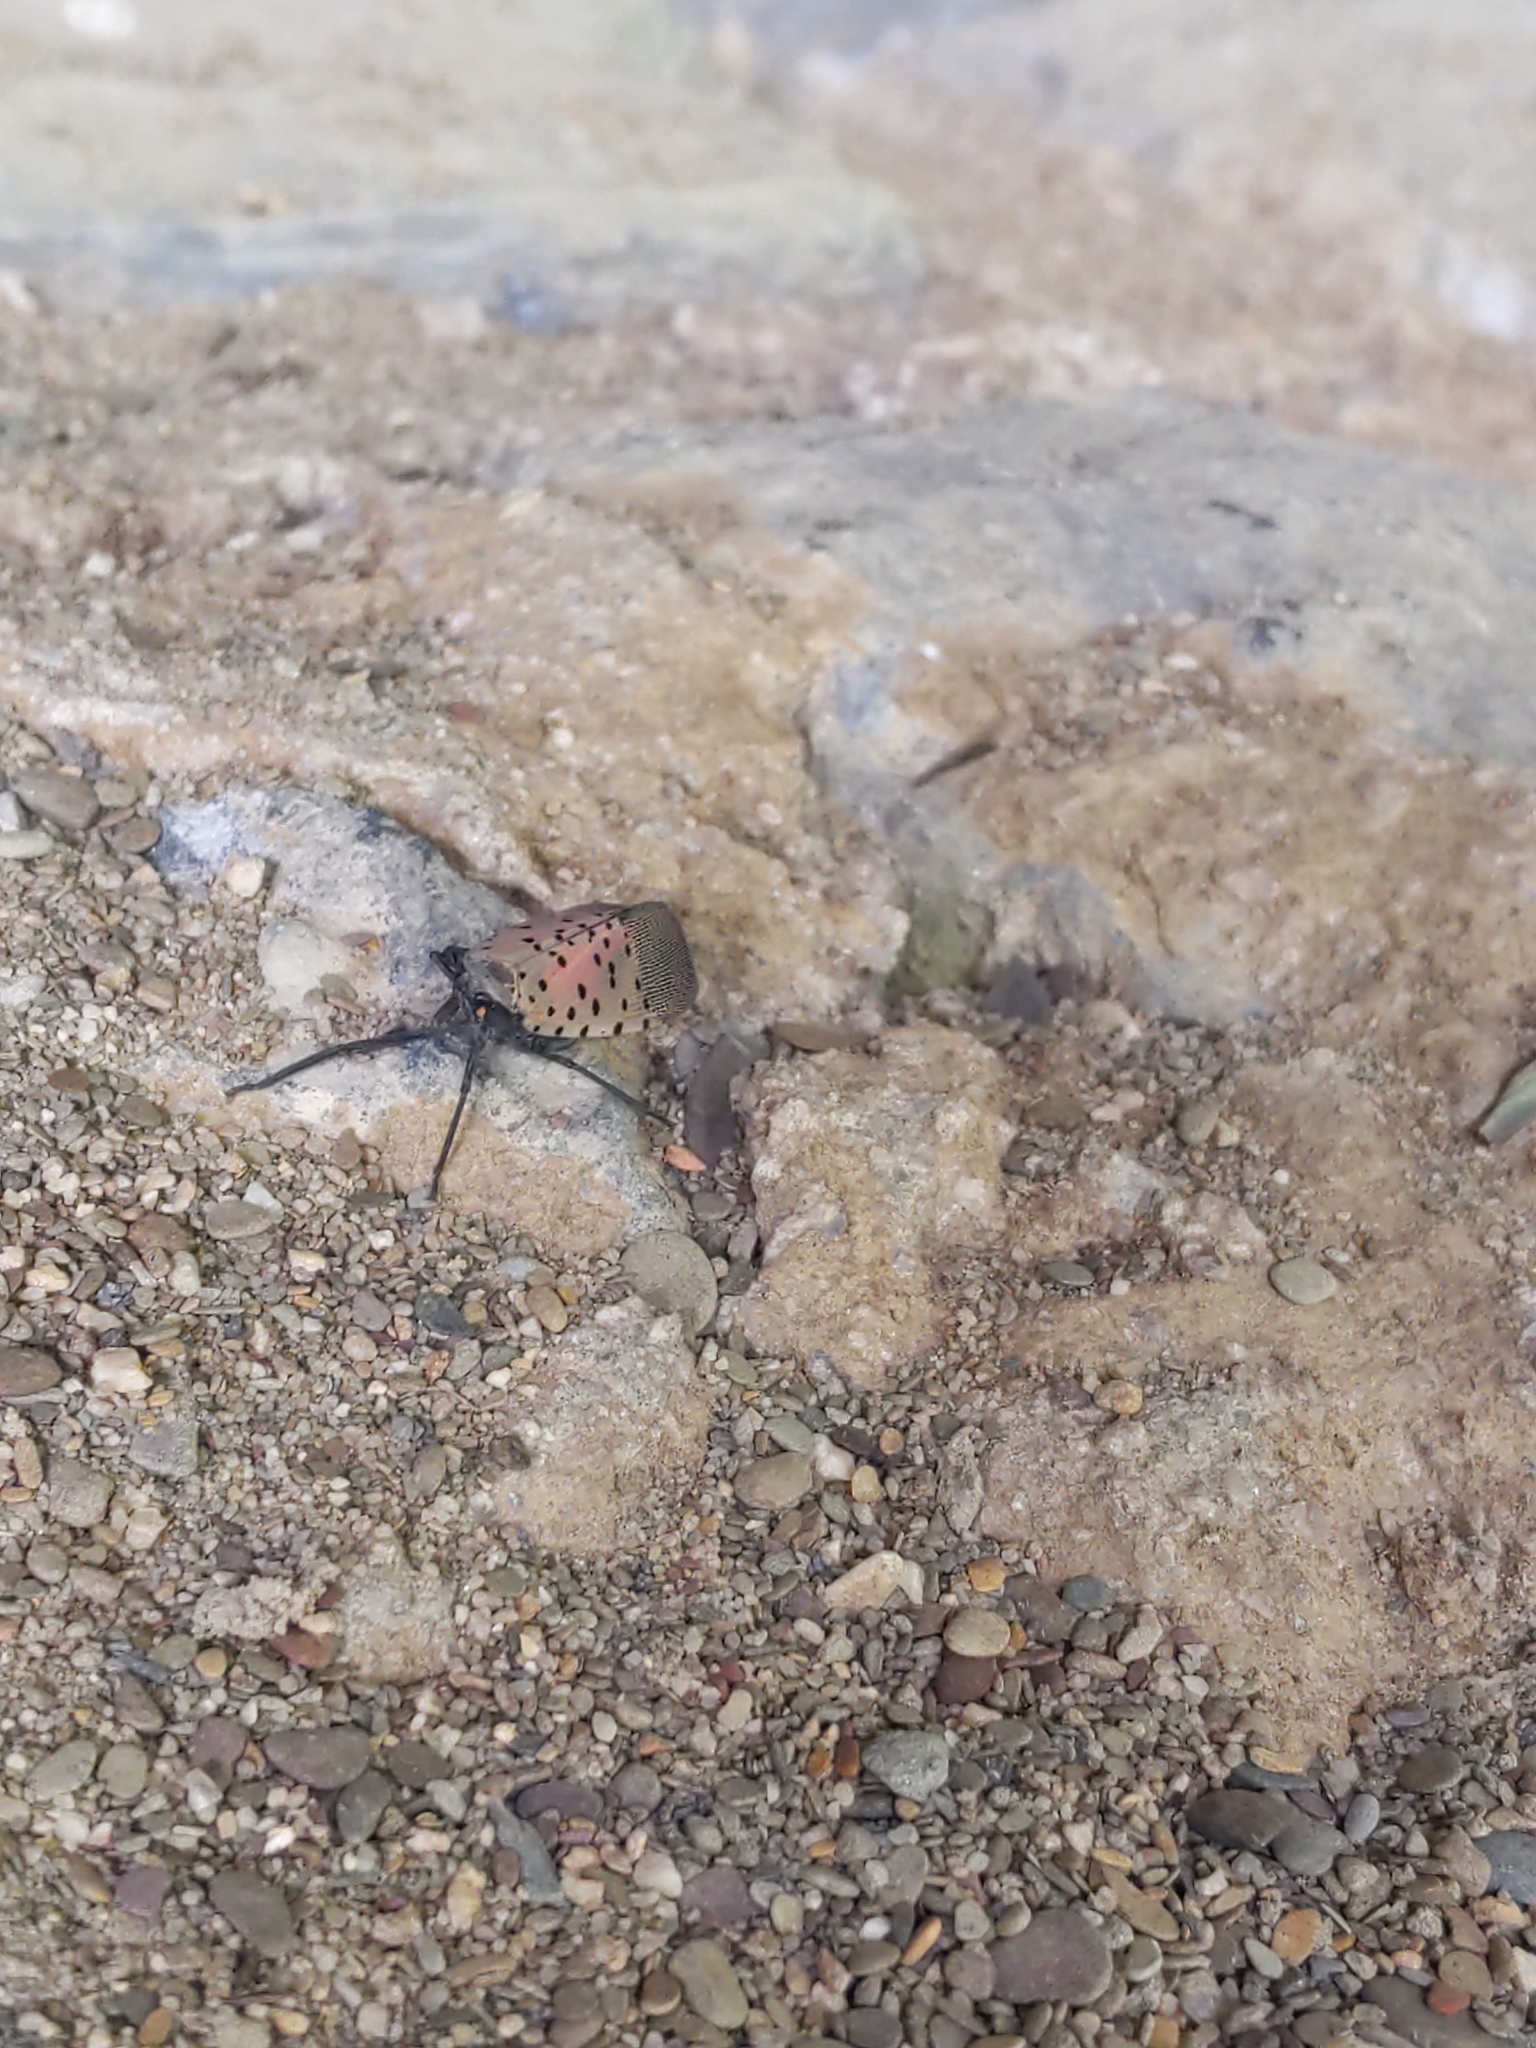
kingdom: Animalia
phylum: Arthropoda
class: Insecta
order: Hemiptera
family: Fulgoridae
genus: Lycorma
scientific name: Lycorma delicatula
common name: Spotted lanternfly
